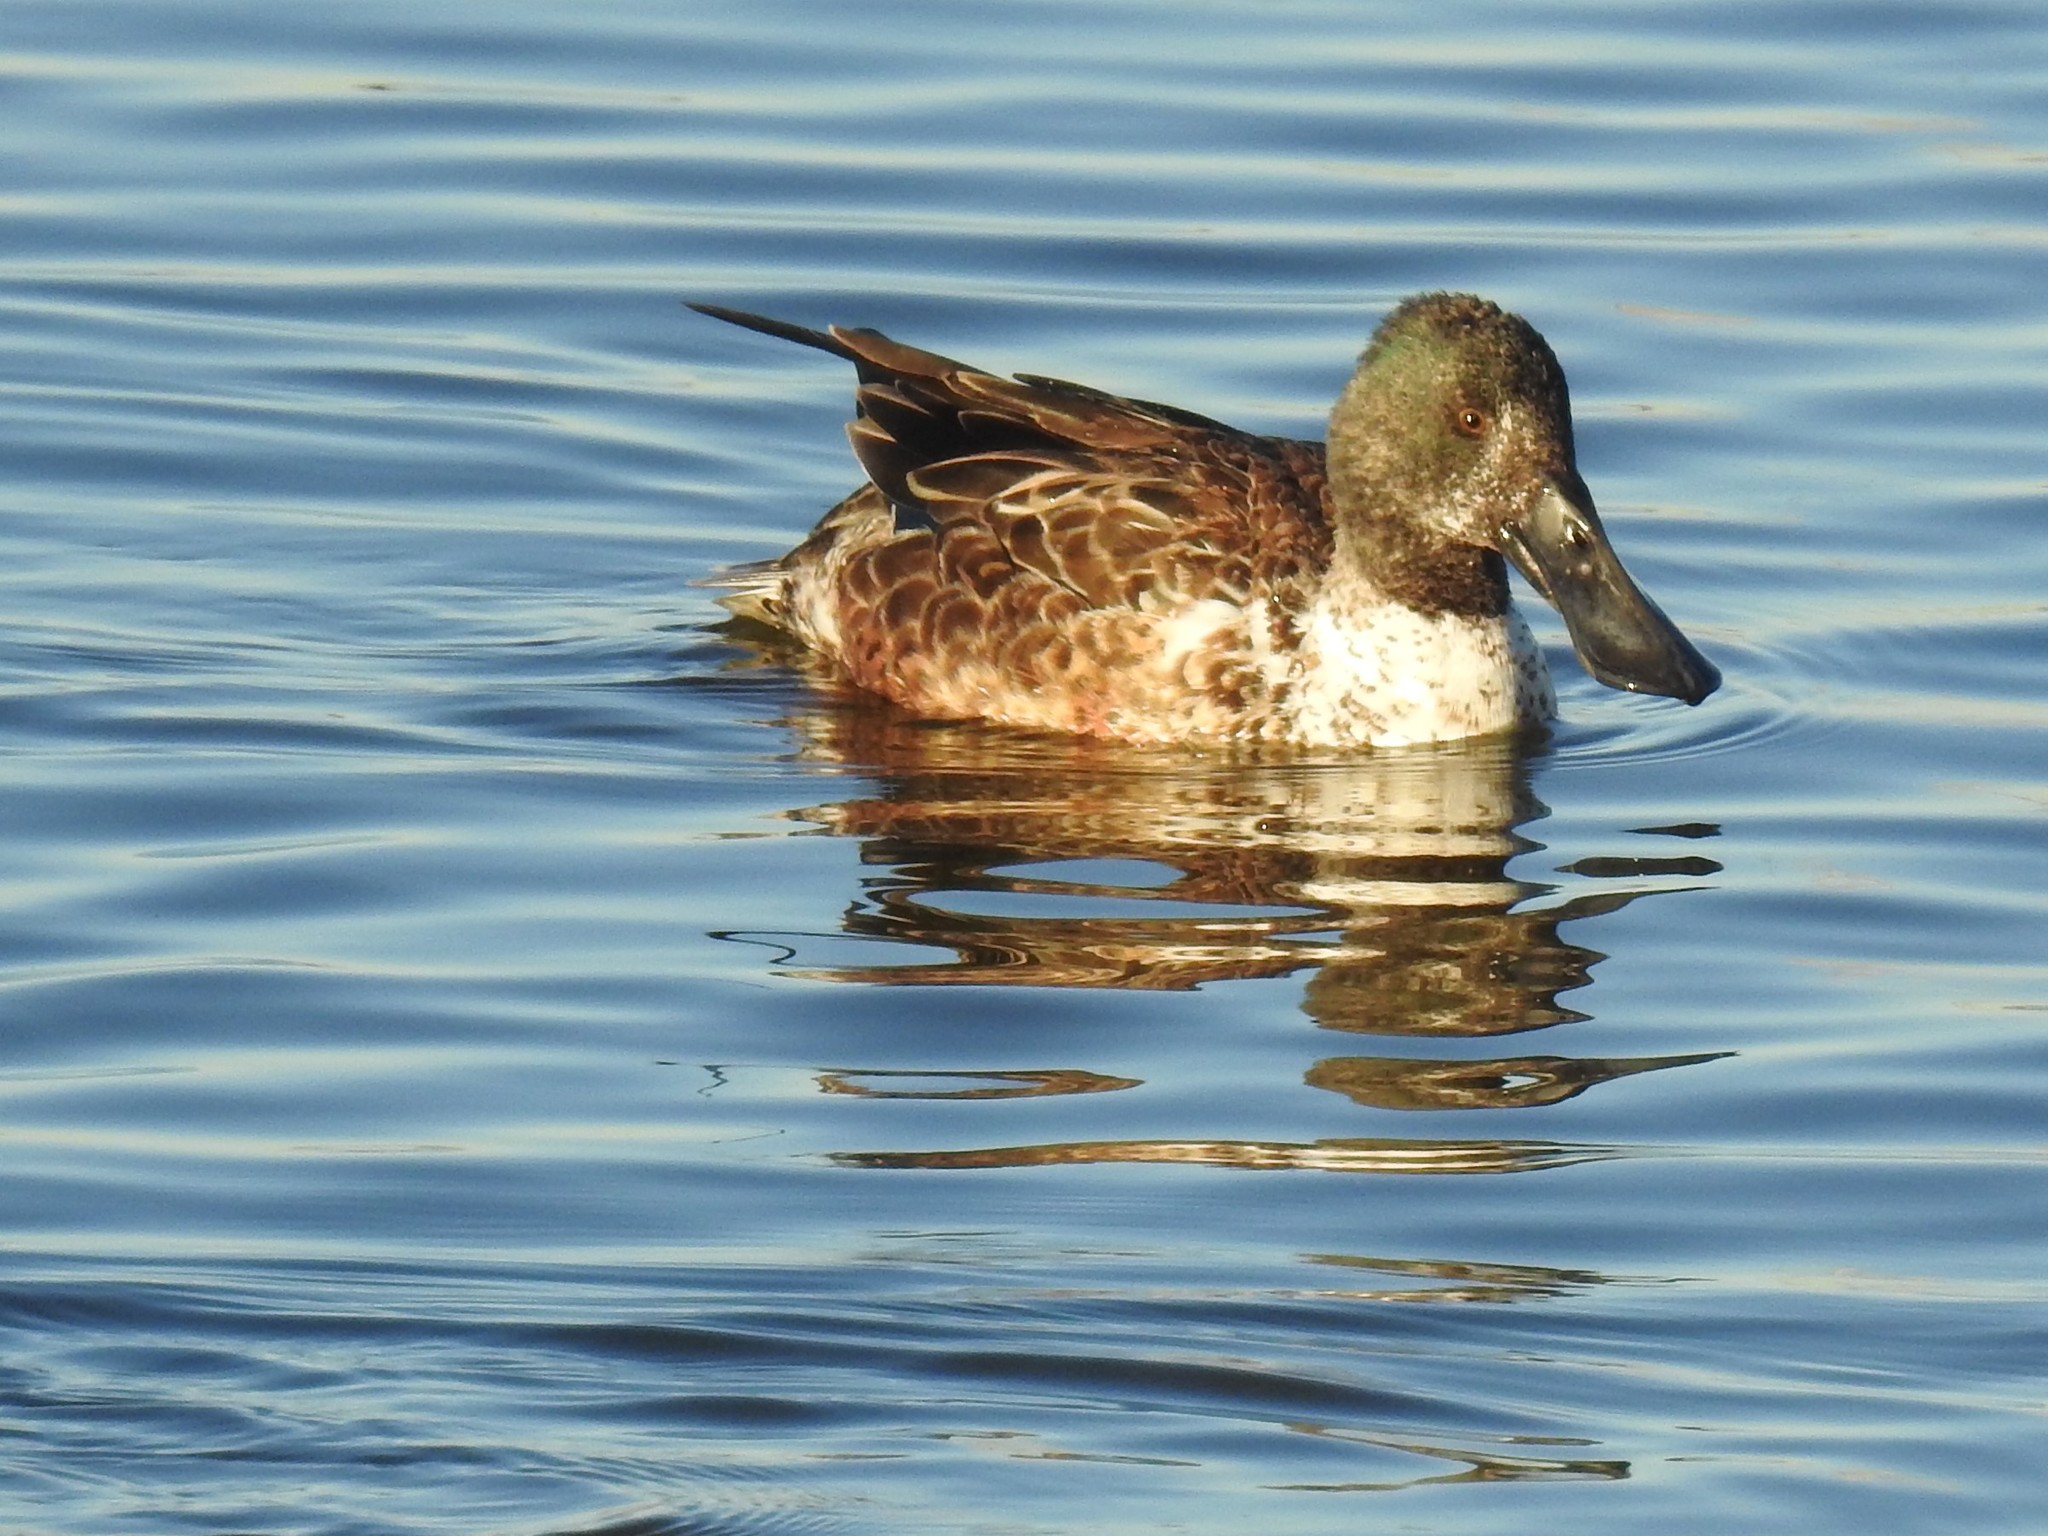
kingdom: Animalia
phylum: Chordata
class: Aves
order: Anseriformes
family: Anatidae
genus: Spatula
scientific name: Spatula clypeata
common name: Northern shoveler
